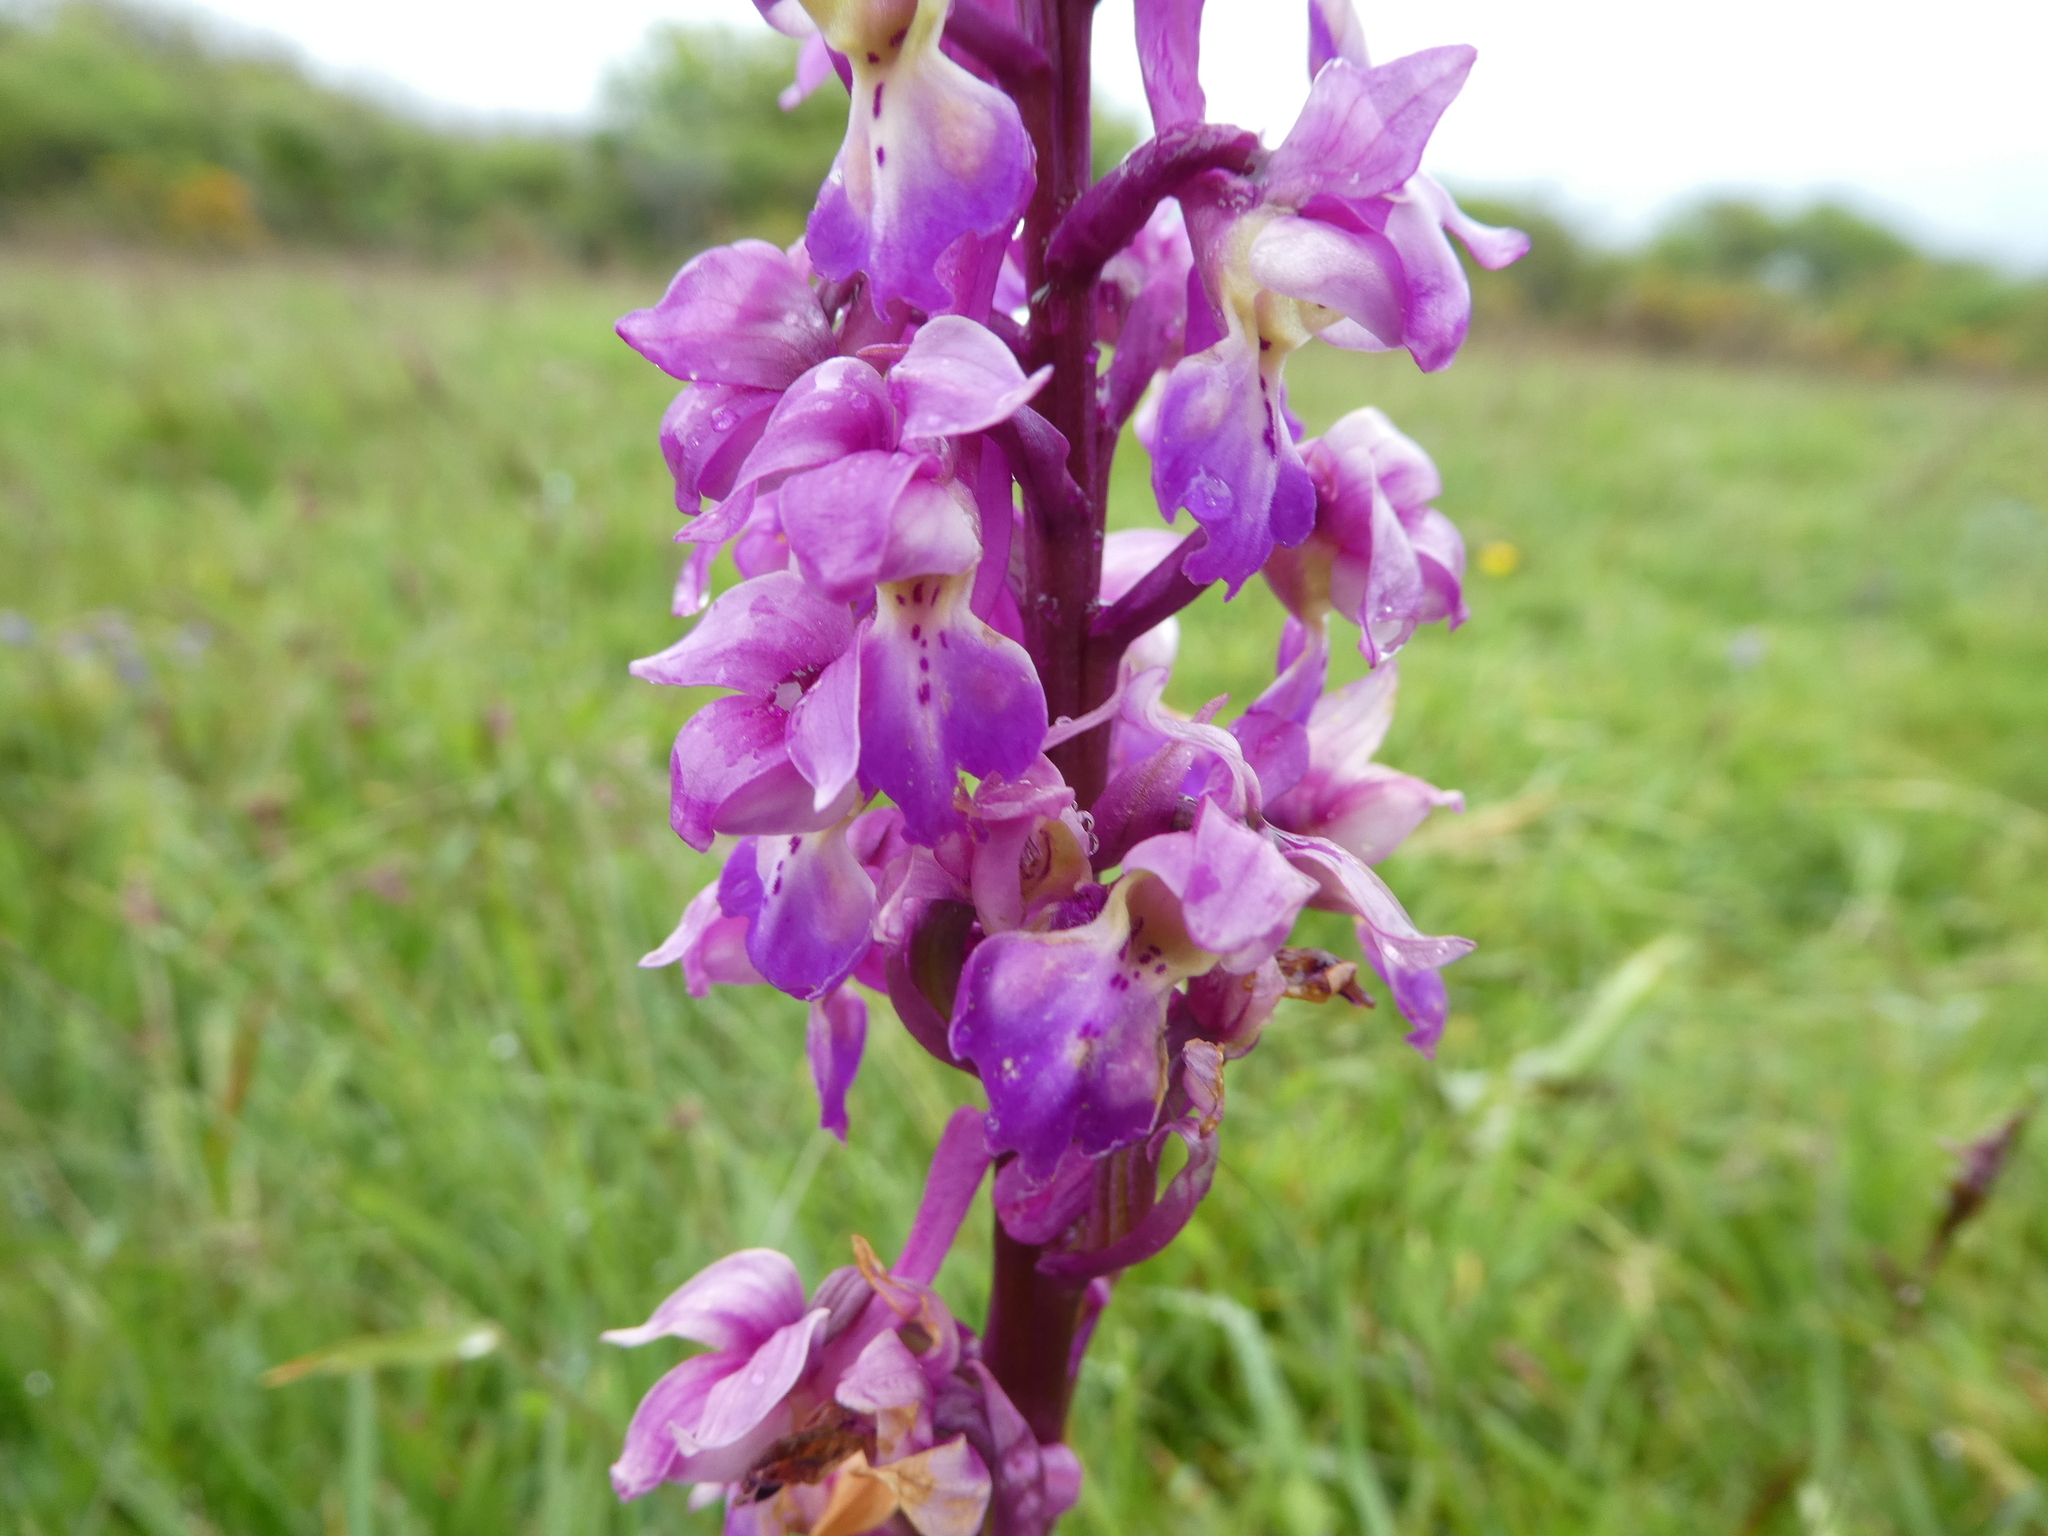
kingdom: Plantae
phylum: Tracheophyta
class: Liliopsida
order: Asparagales
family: Orchidaceae
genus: Orchis
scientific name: Orchis mascula
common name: Early-purple orchid
